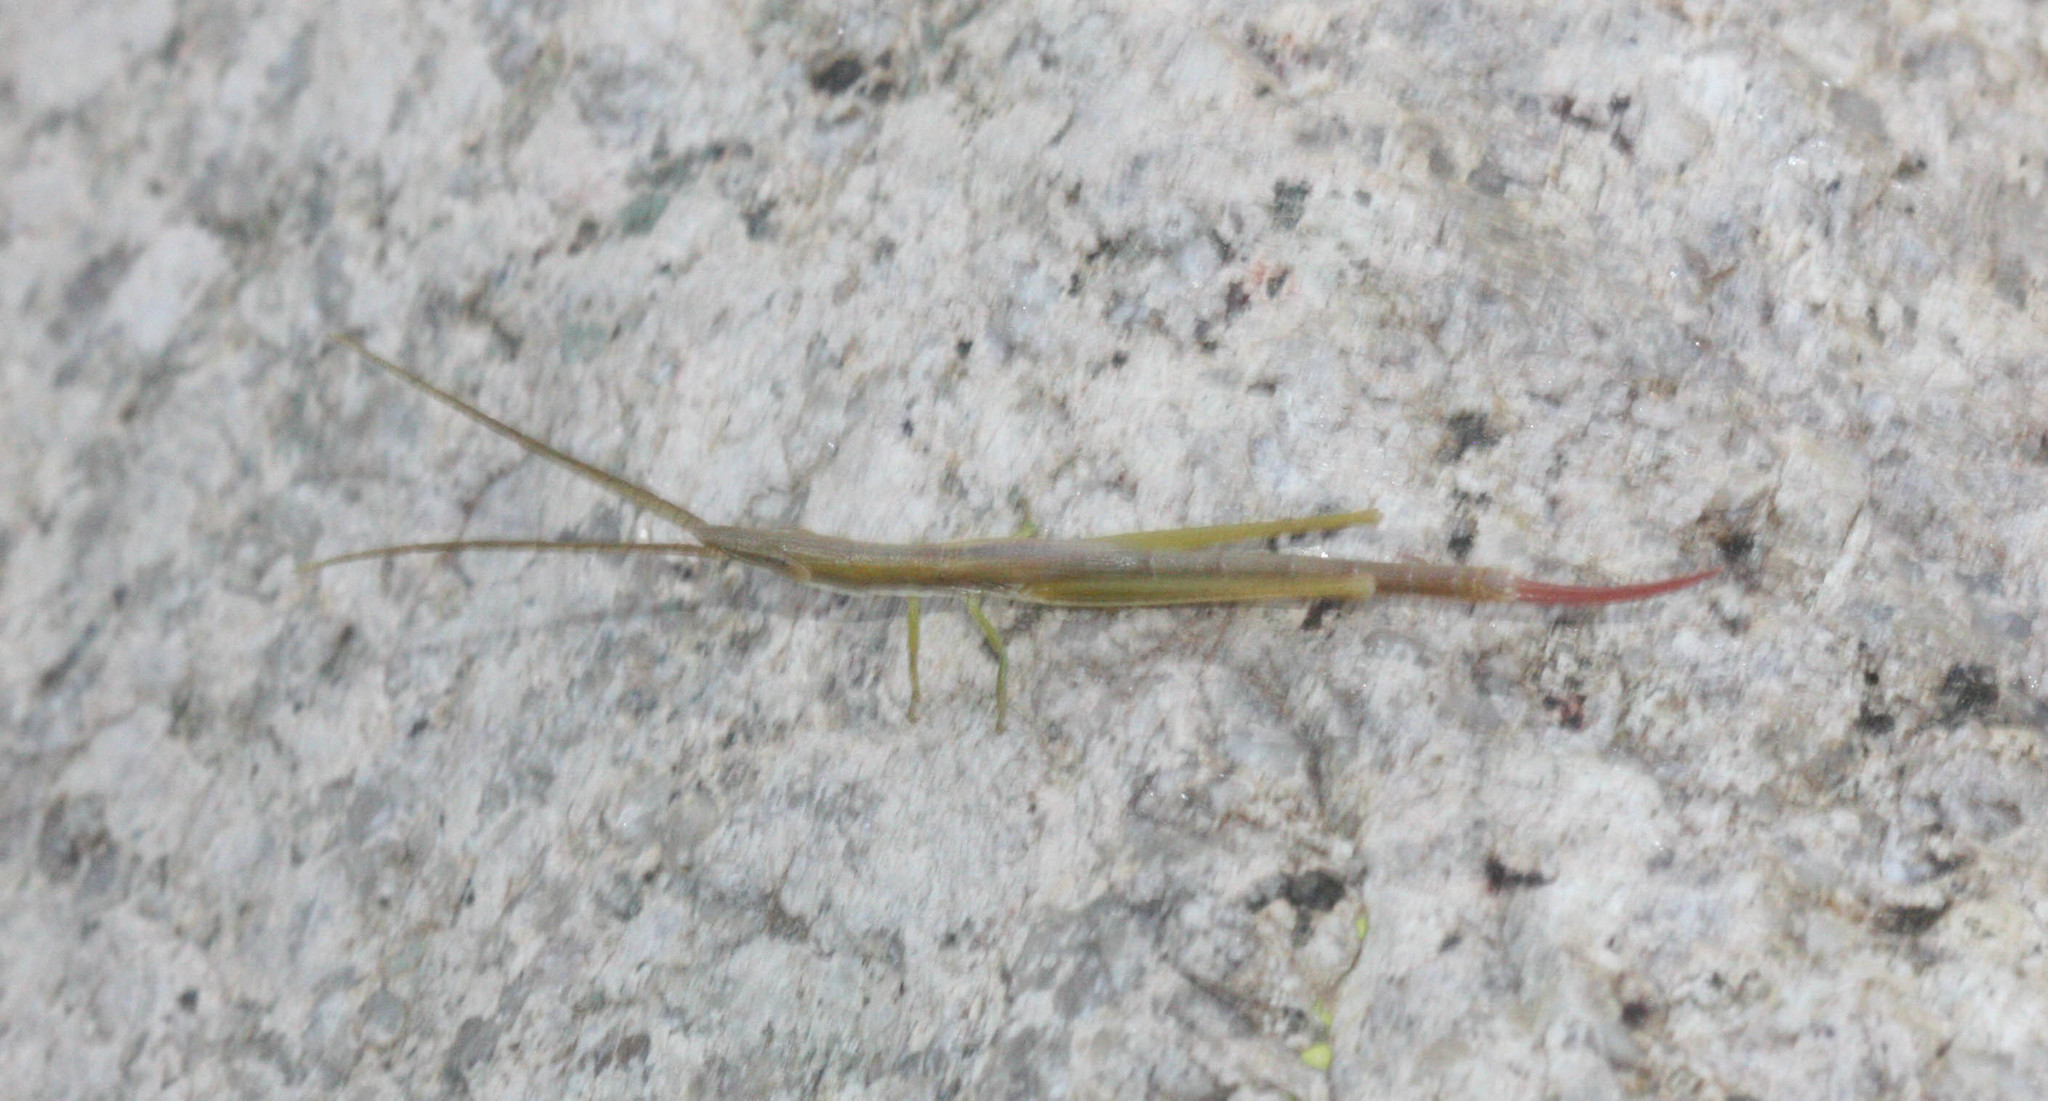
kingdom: Animalia
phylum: Arthropoda
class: Insecta
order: Orthoptera
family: Acrididae
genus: Prorocorypha
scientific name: Prorocorypha snowi
